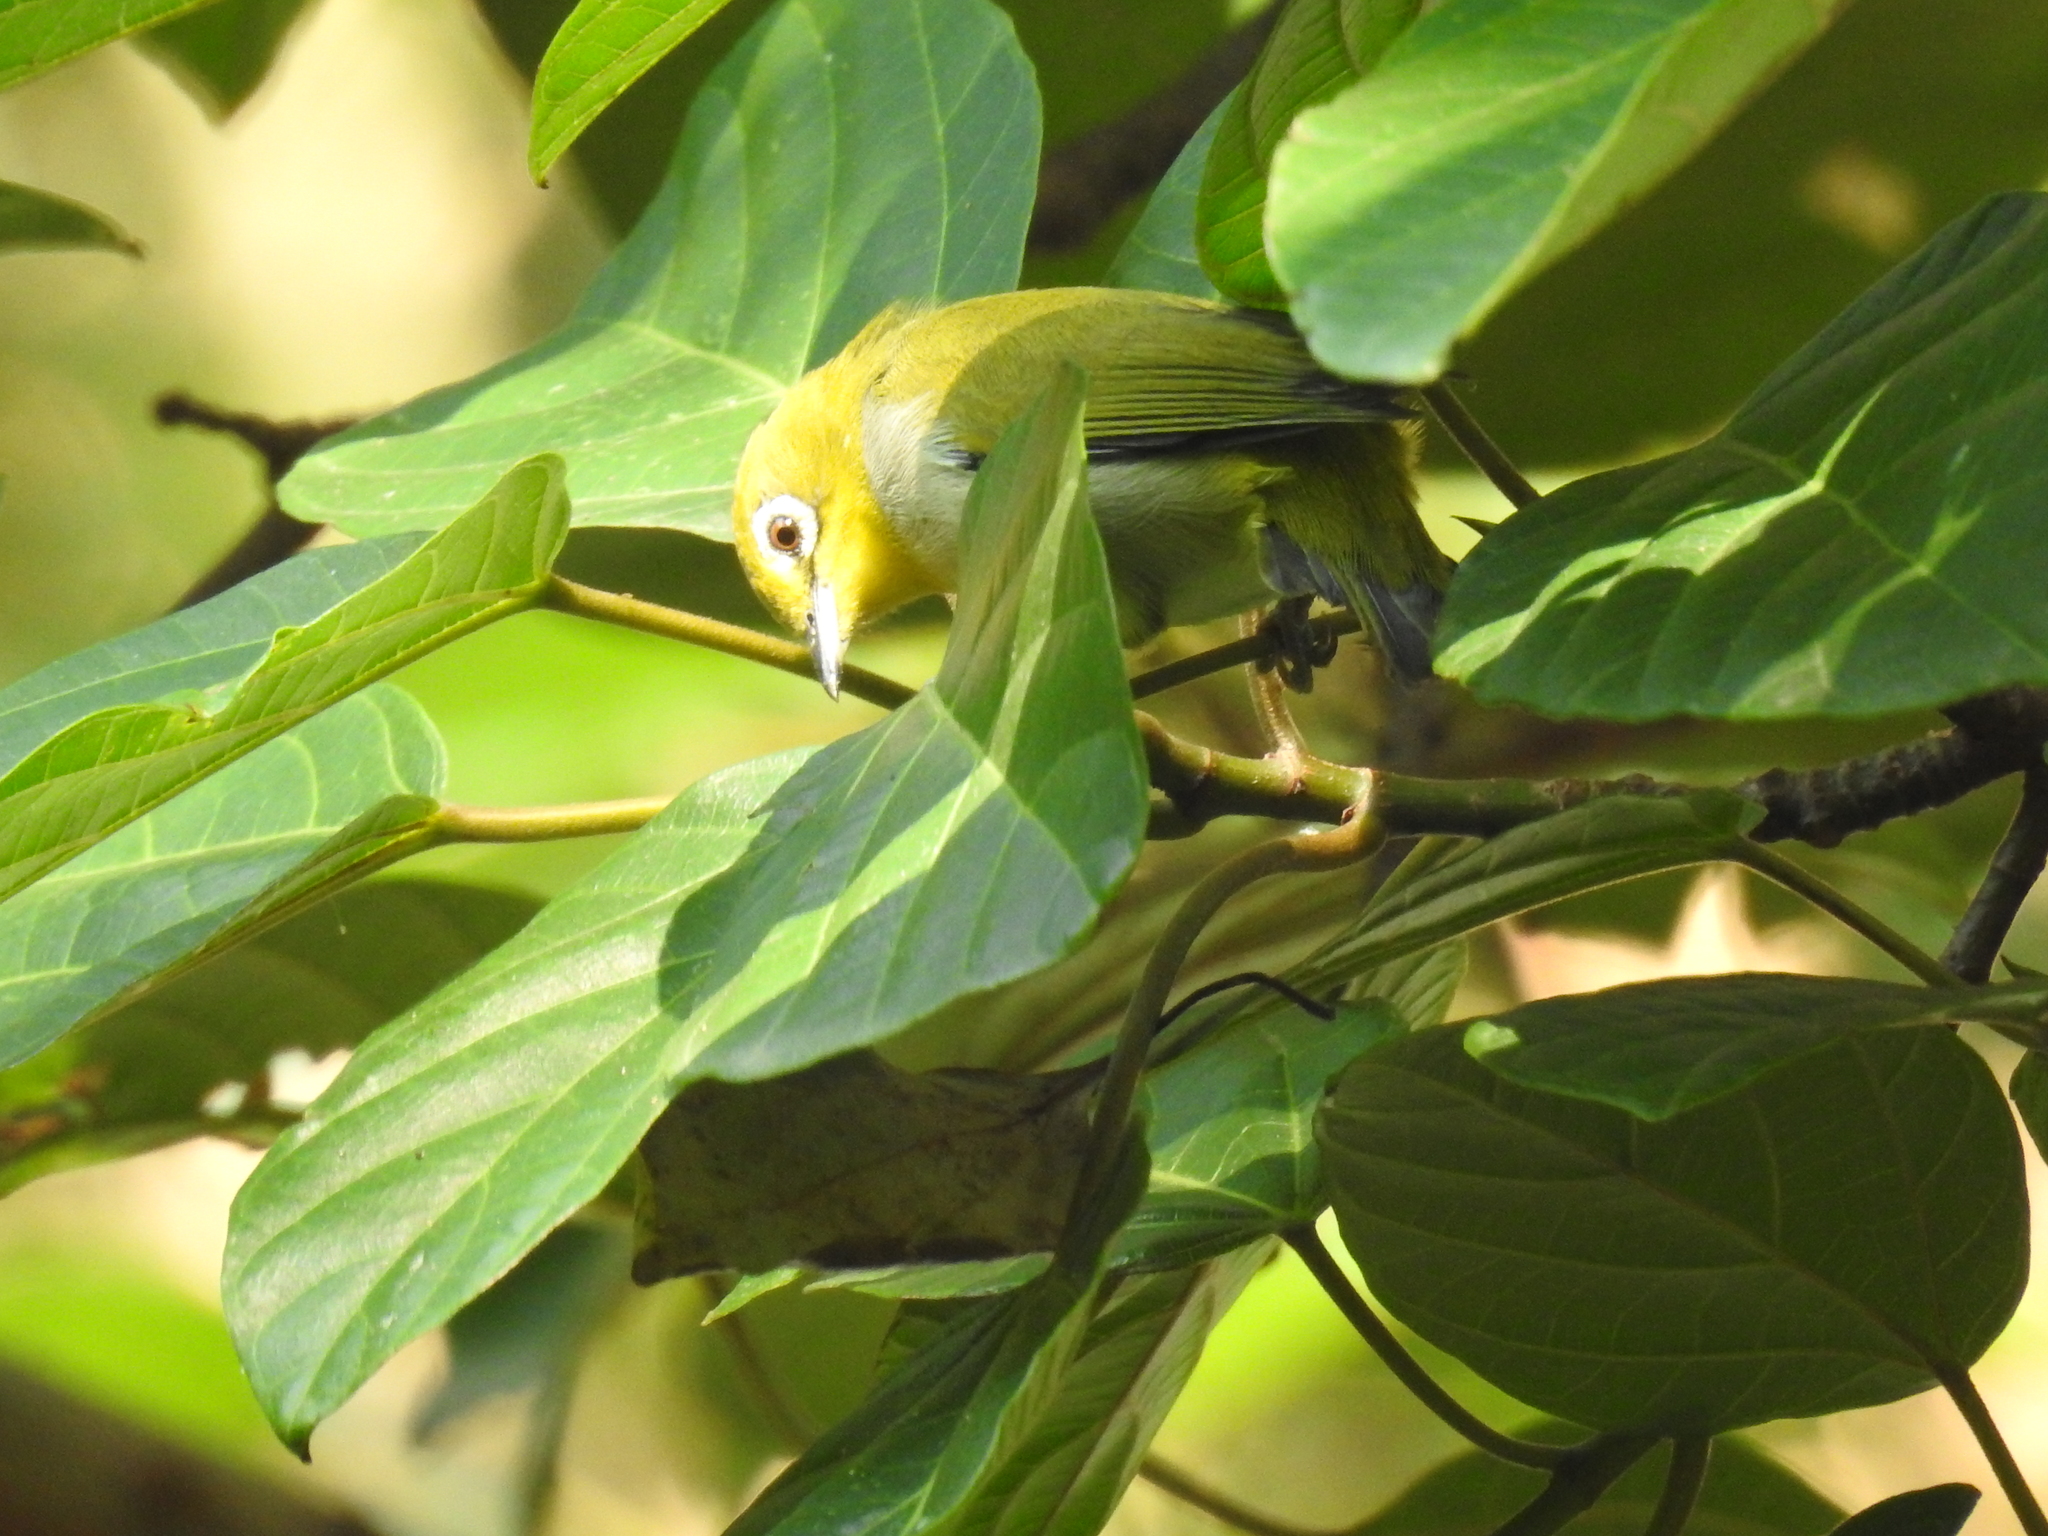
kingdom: Animalia
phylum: Chordata
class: Aves
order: Passeriformes
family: Zosteropidae
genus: Zosterops
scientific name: Zosterops simplex
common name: Swinhoe's white-eye
